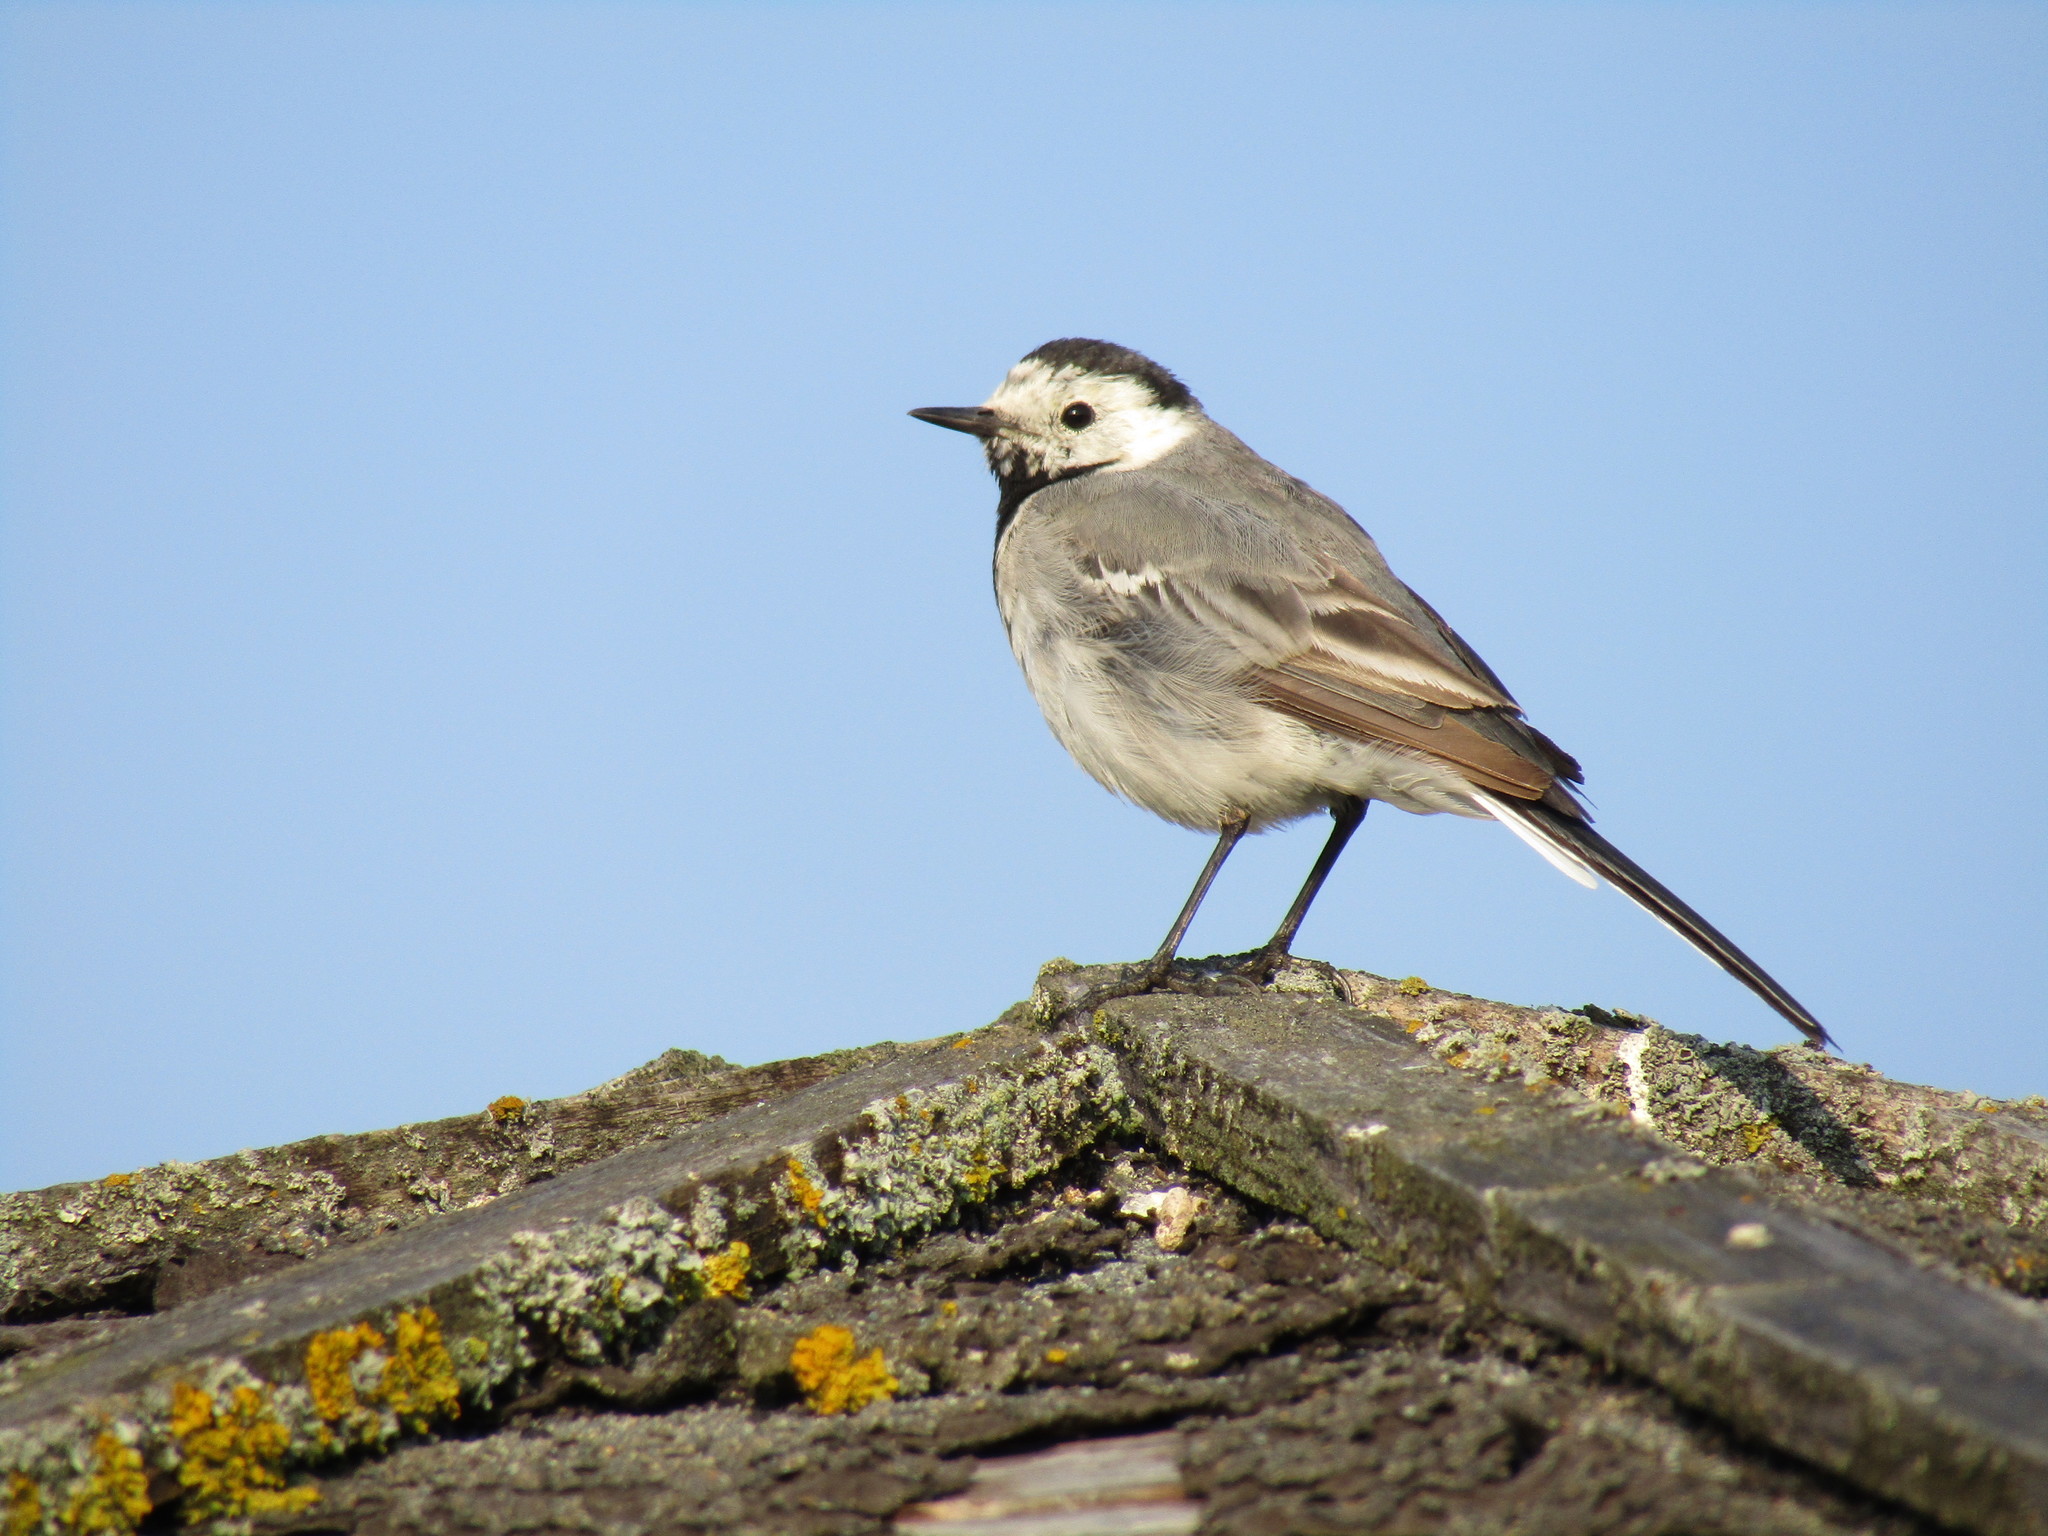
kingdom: Animalia
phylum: Chordata
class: Aves
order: Passeriformes
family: Motacillidae
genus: Motacilla
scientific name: Motacilla alba
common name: White wagtail
